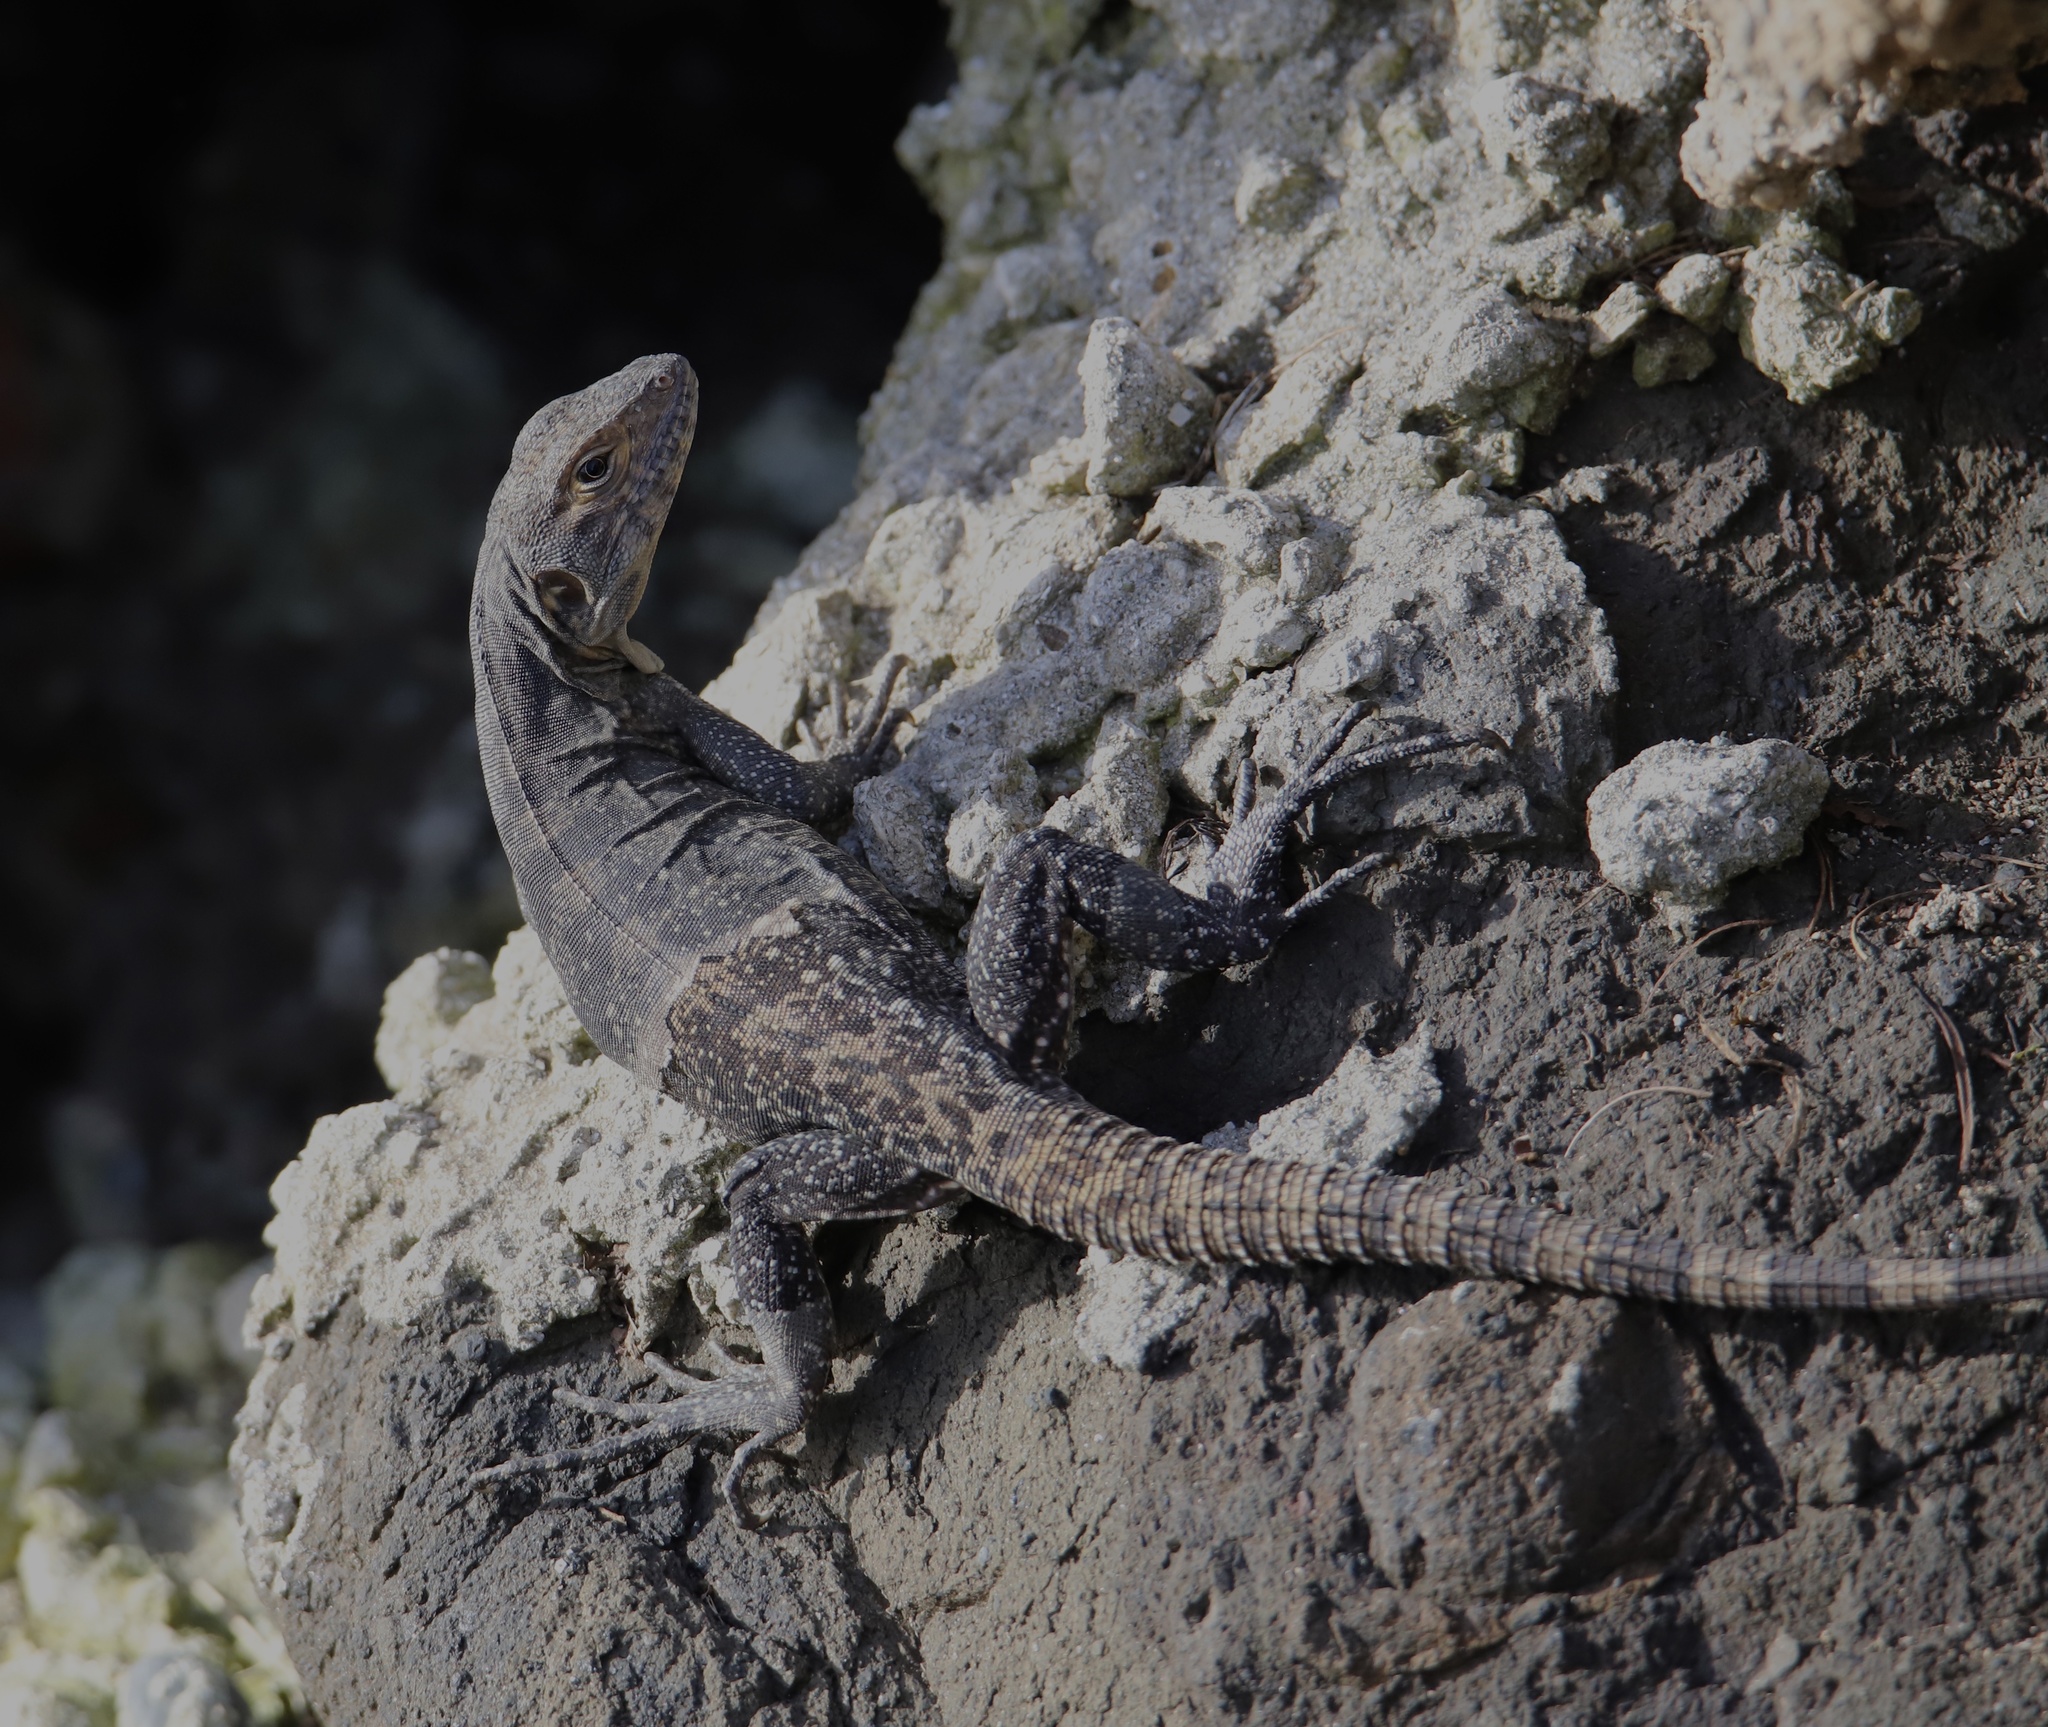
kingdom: Animalia
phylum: Chordata
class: Squamata
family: Iguanidae
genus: Ctenosaura
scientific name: Ctenosaura similis
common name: Black spiny-tailed iguana
